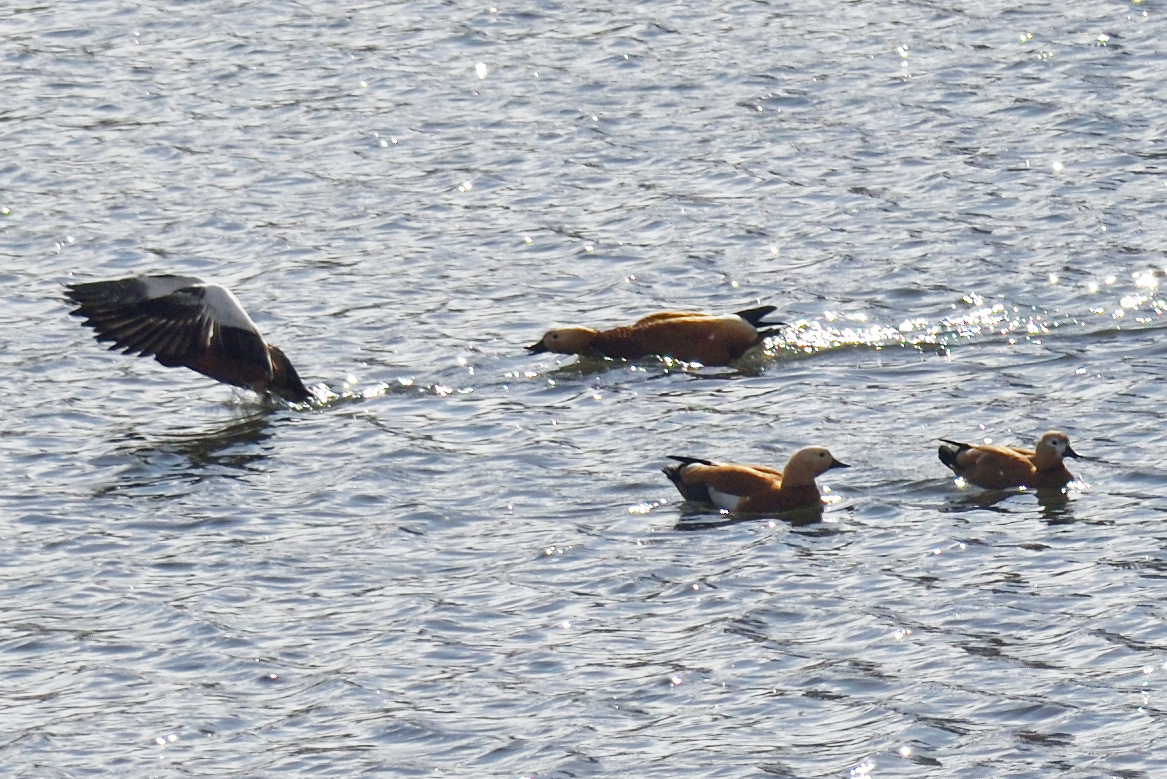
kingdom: Animalia
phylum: Chordata
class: Aves
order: Anseriformes
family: Anatidae
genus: Tadorna
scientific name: Tadorna ferruginea
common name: Ruddy shelduck
